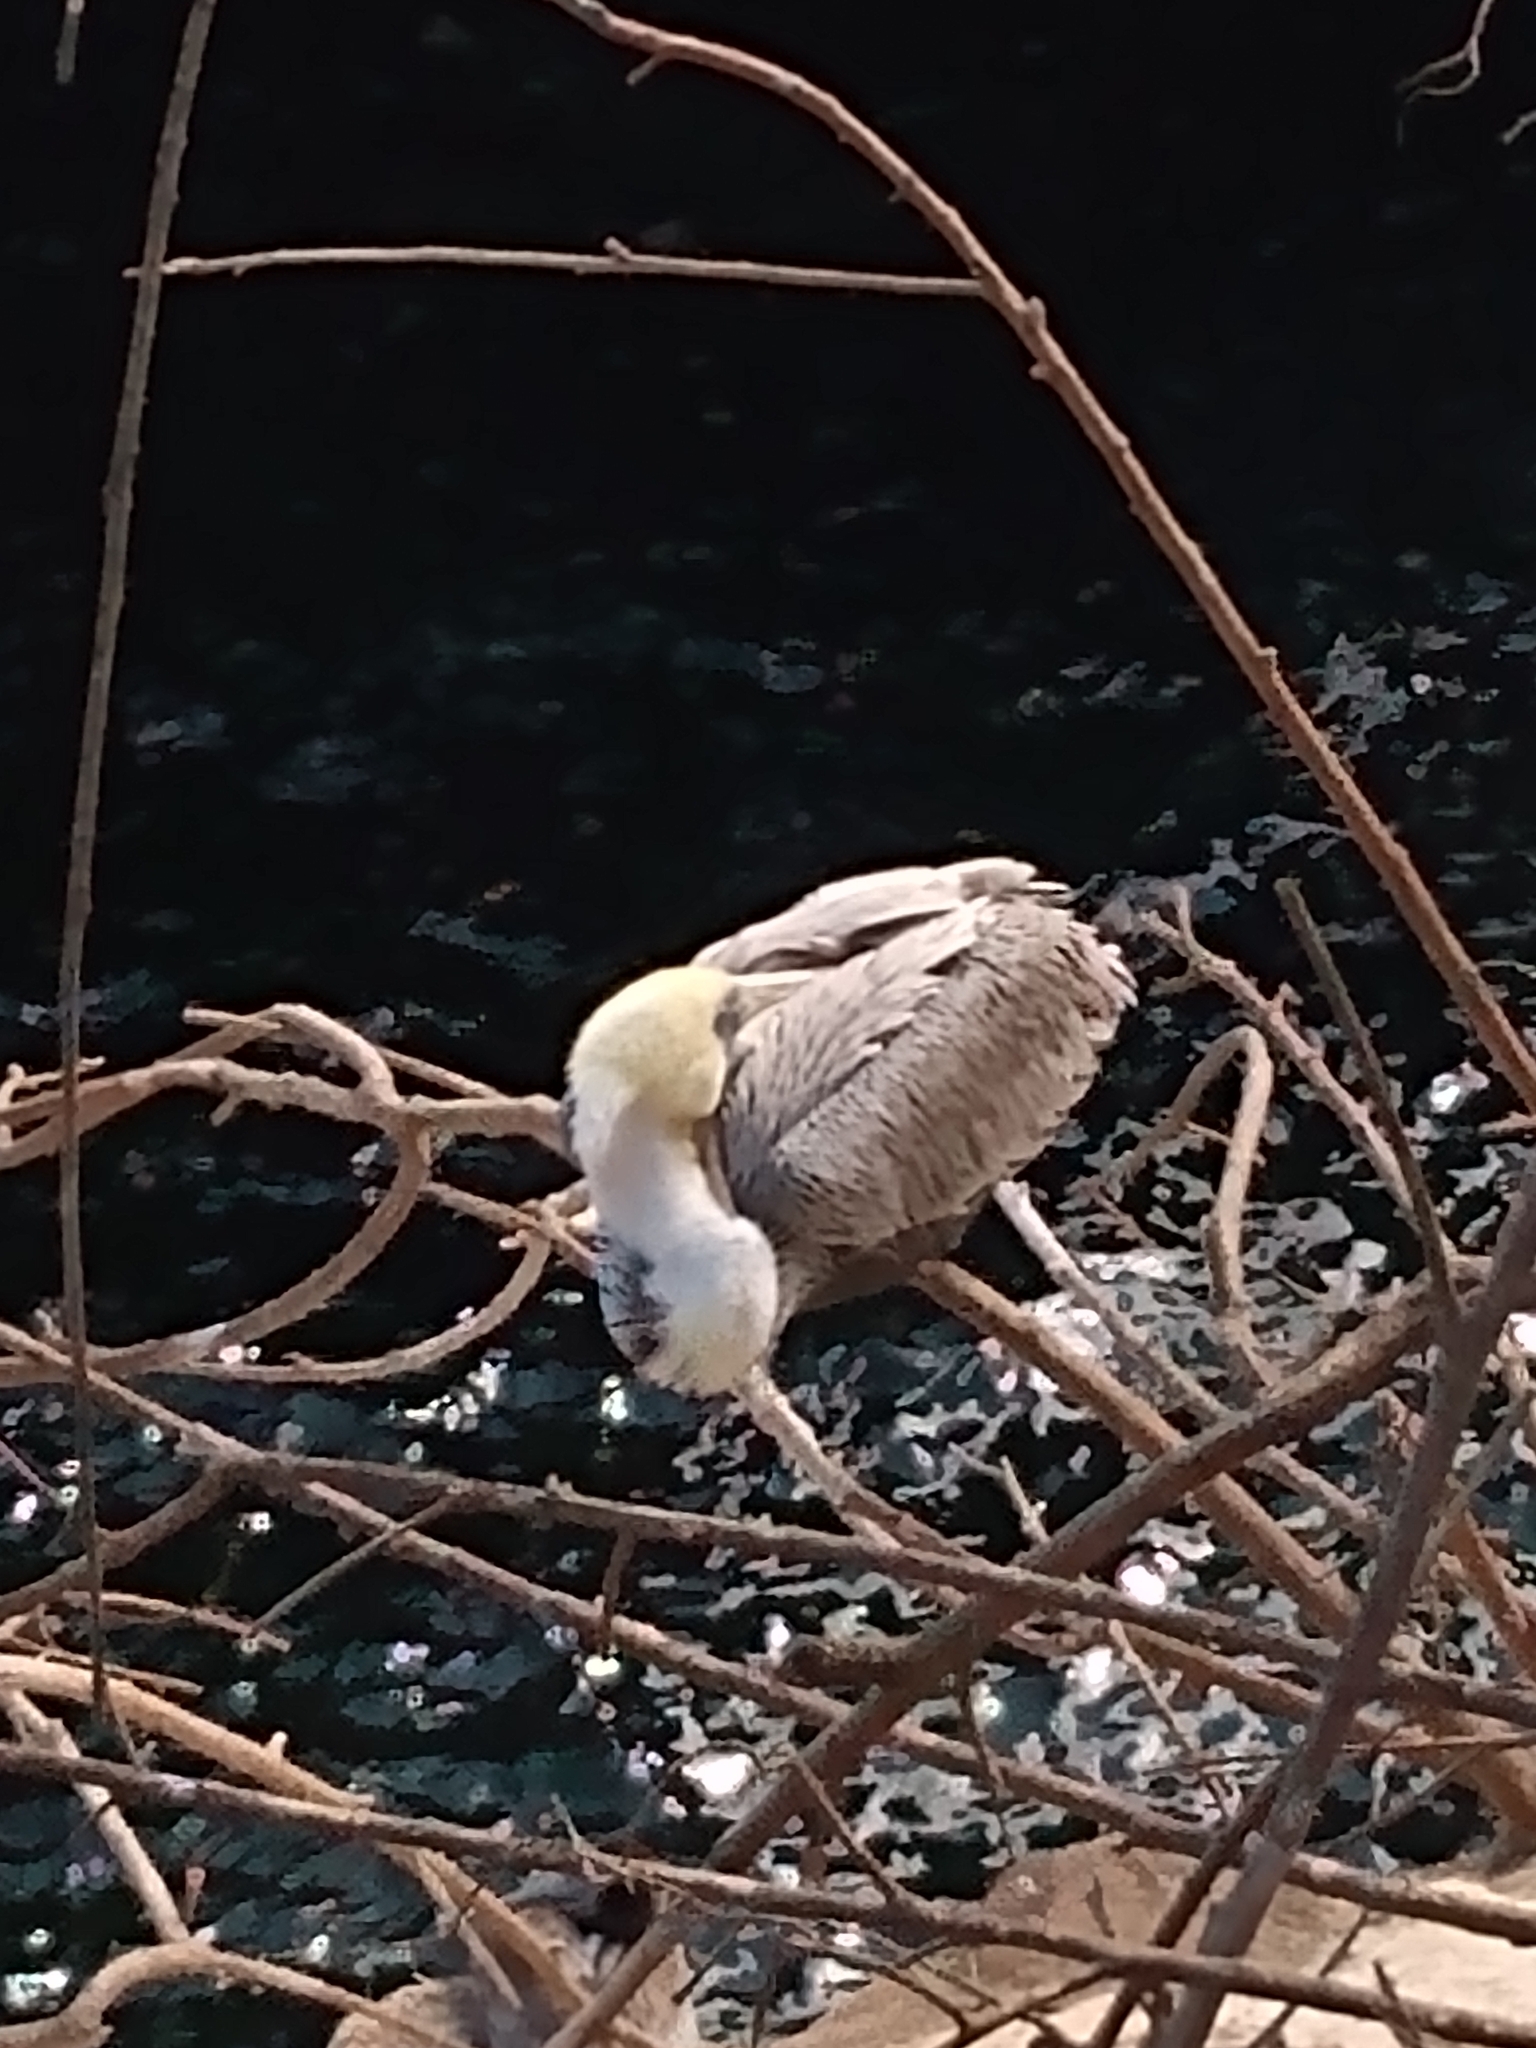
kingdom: Animalia
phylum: Chordata
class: Aves
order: Pelecaniformes
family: Pelecanidae
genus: Pelecanus
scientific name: Pelecanus occidentalis
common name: Brown pelican
